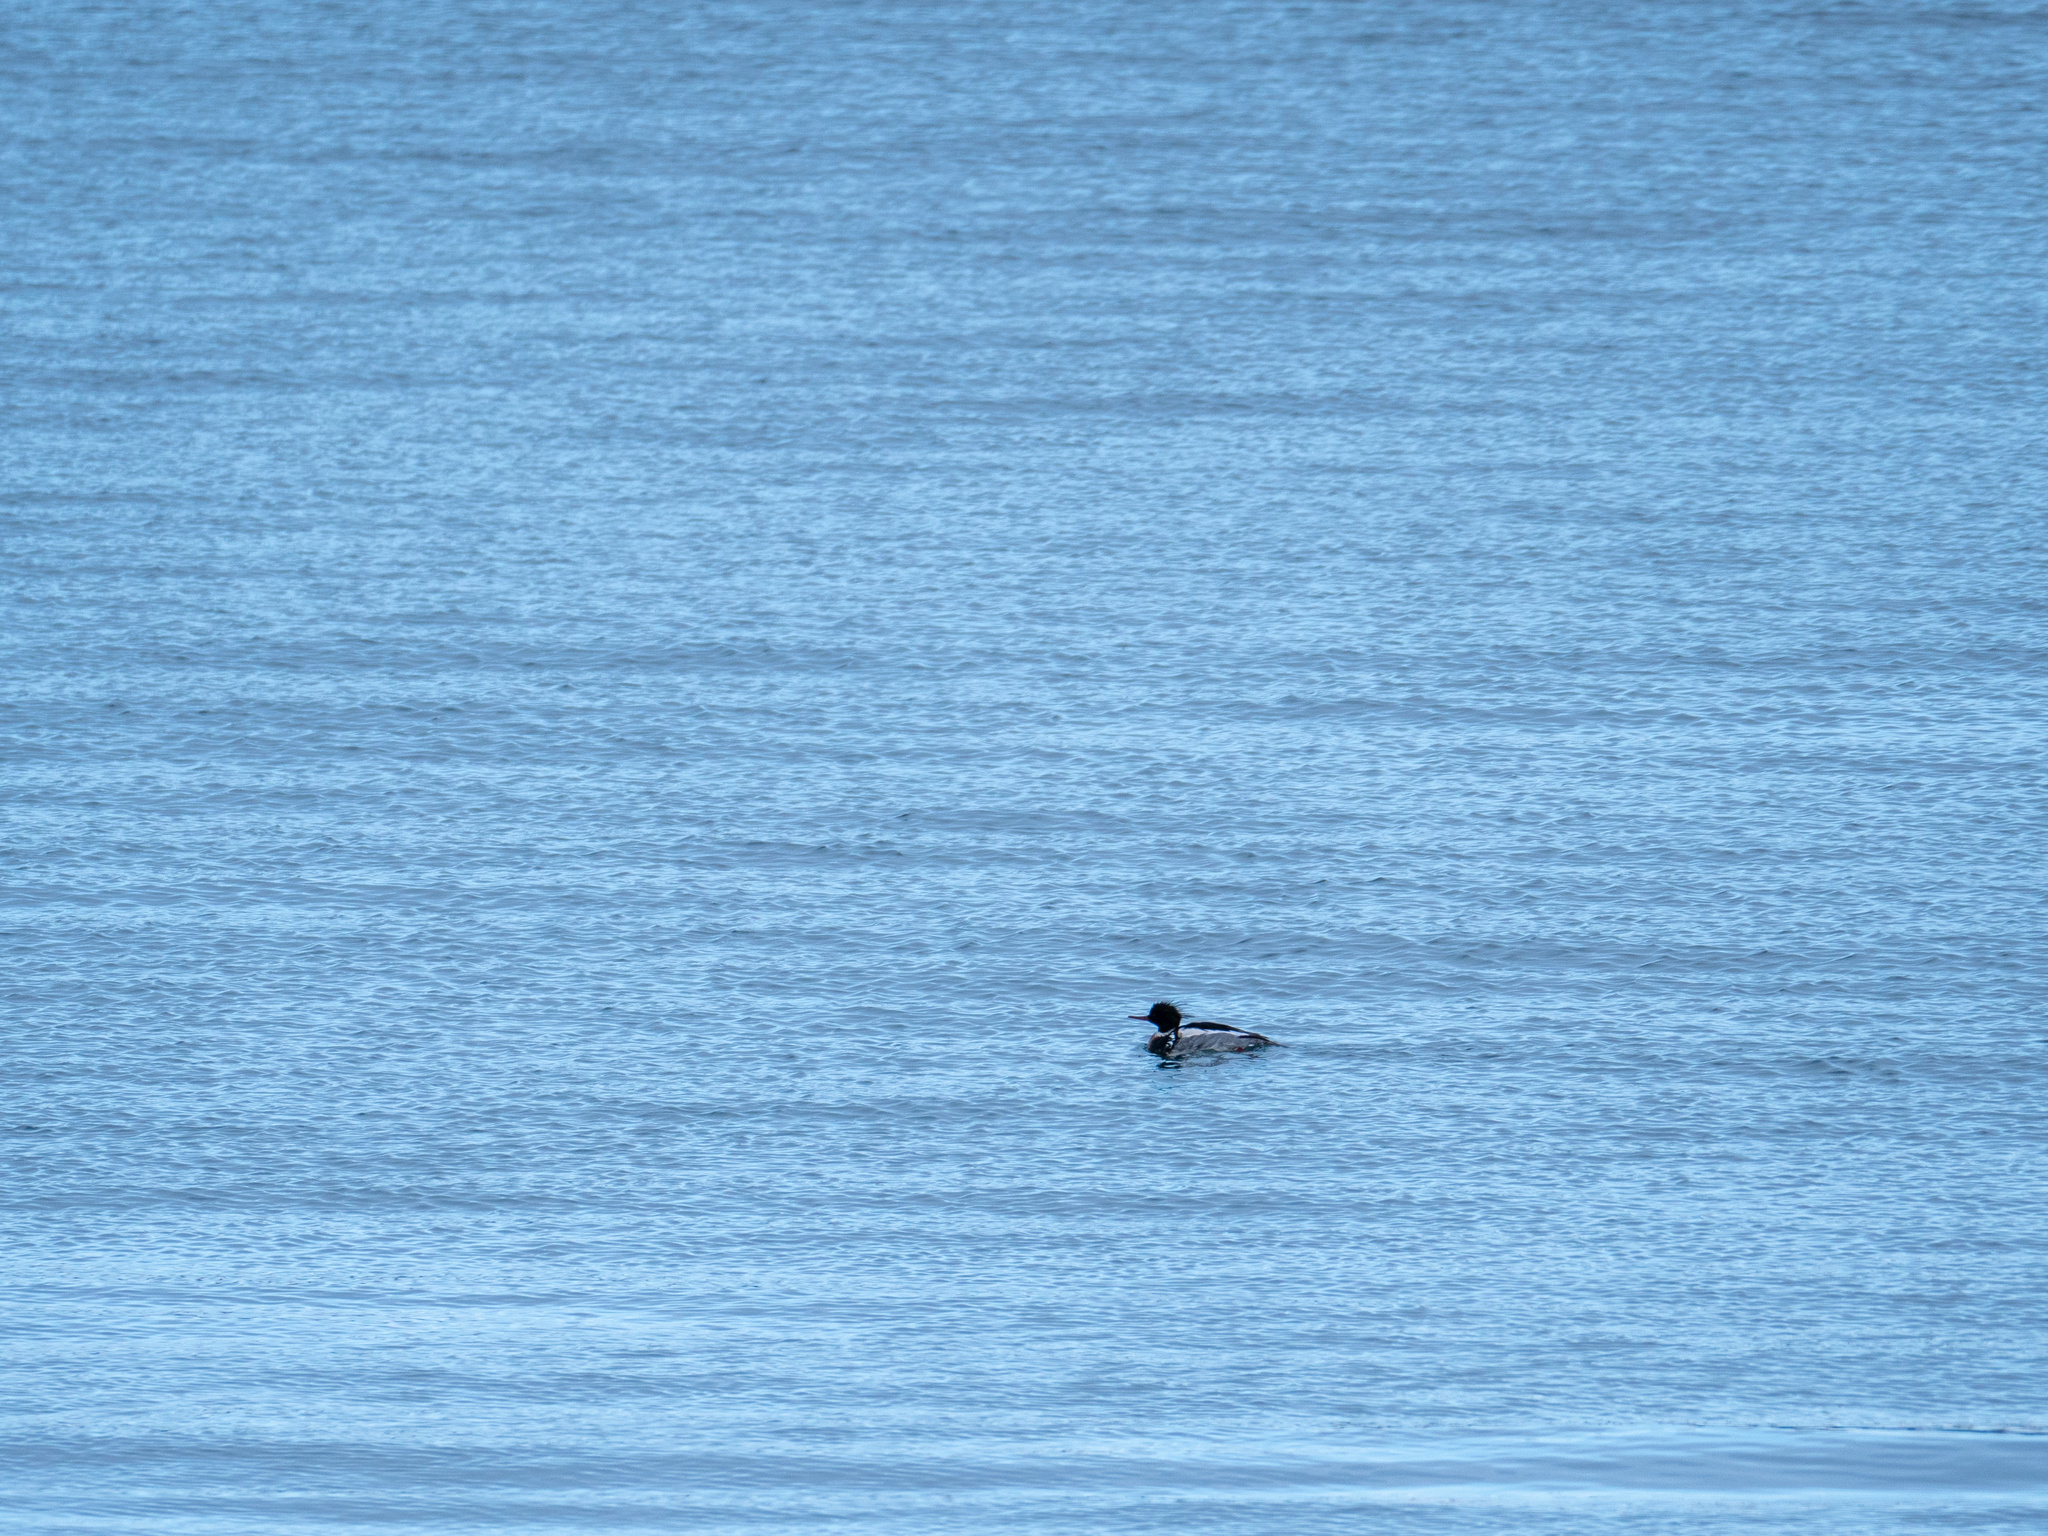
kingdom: Animalia
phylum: Chordata
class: Aves
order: Anseriformes
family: Anatidae
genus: Mergus
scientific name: Mergus serrator
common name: Red-breasted merganser
